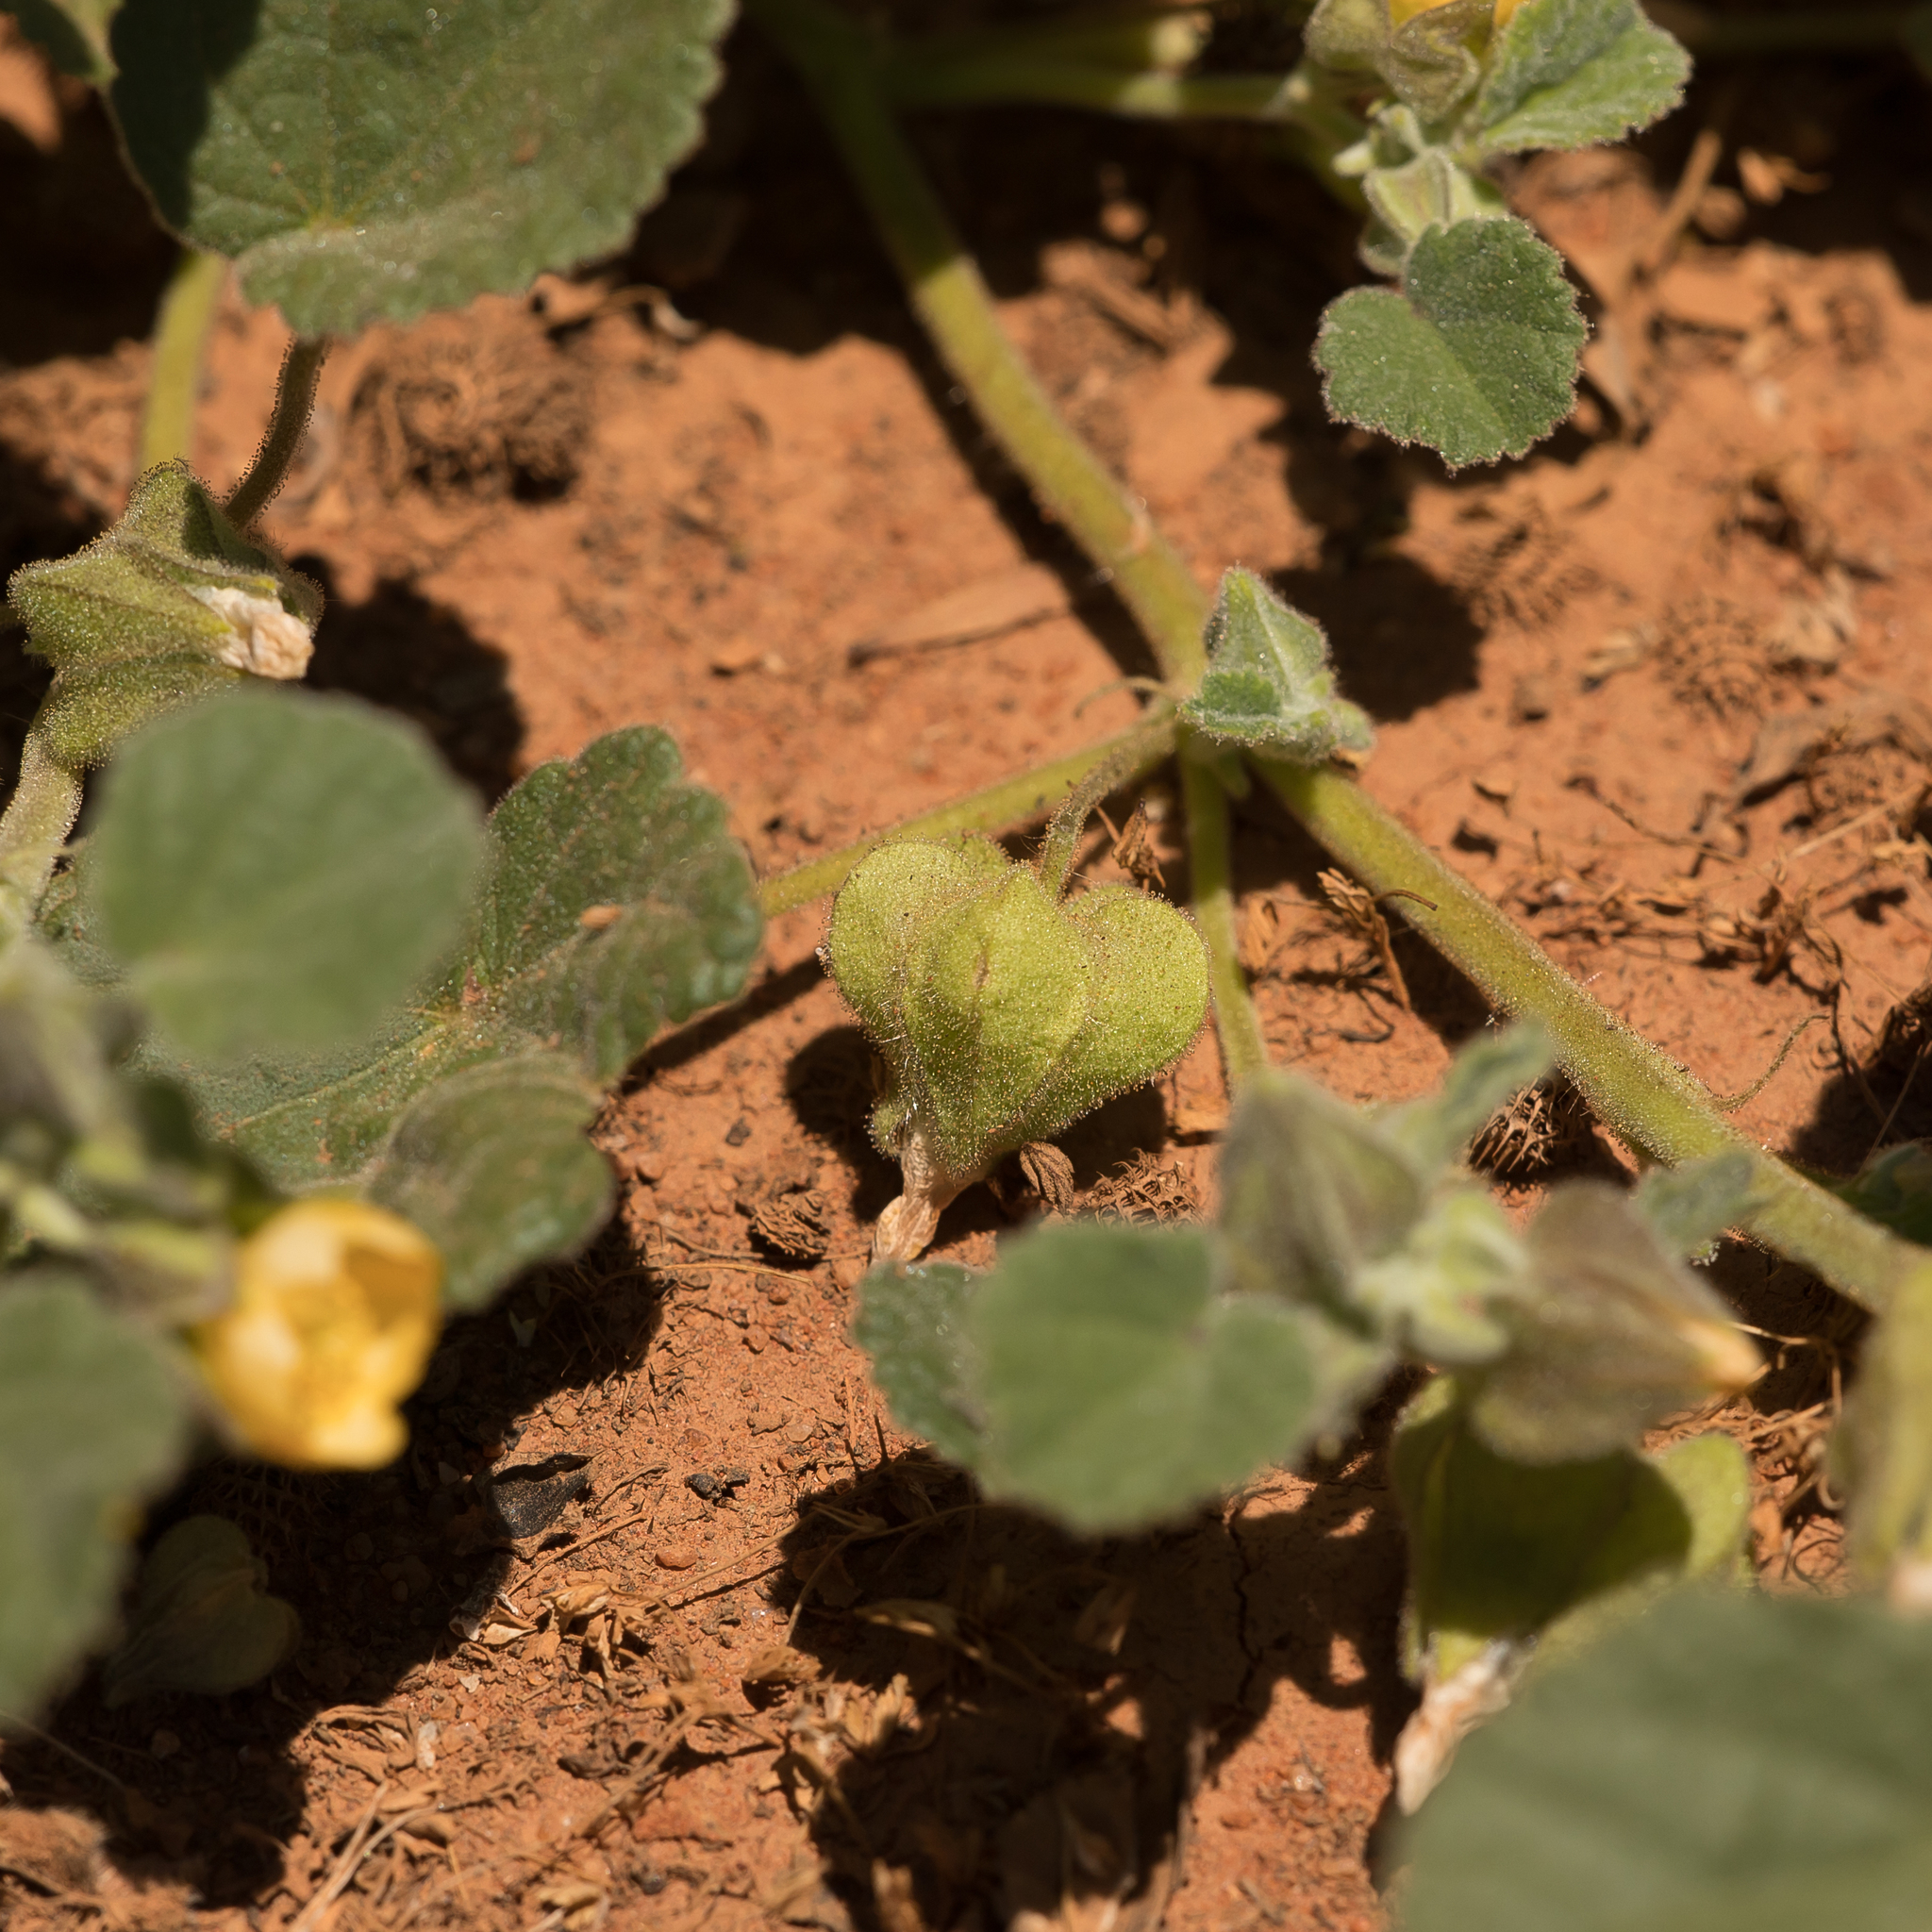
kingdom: Plantae
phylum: Tracheophyta
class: Magnoliopsida
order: Malvales
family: Malvaceae
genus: Abutilon
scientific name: Abutilon otocarpum
